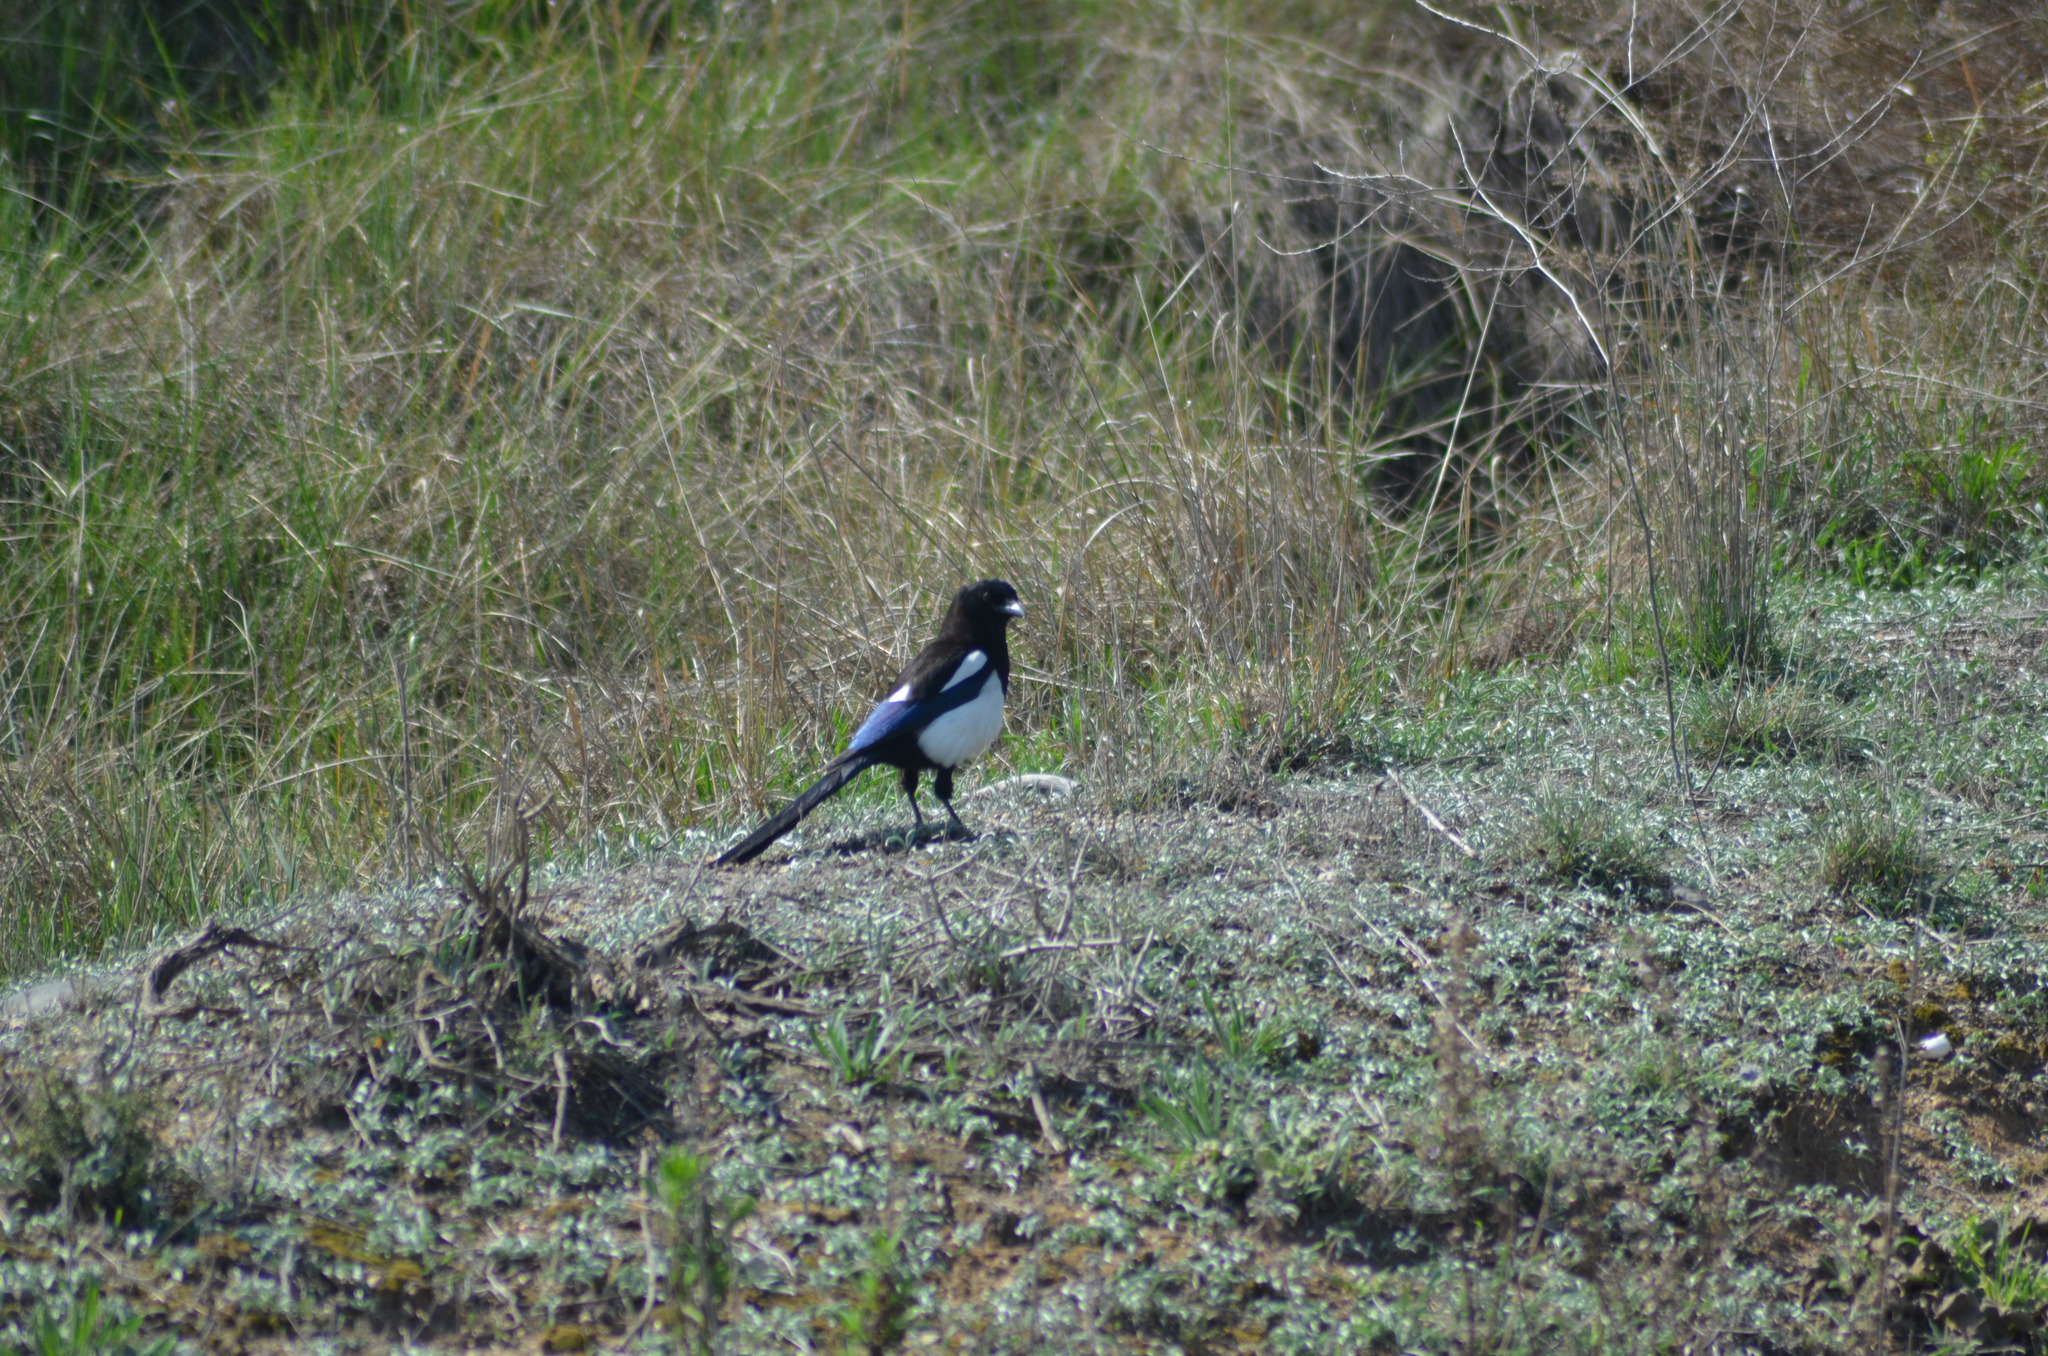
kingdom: Animalia
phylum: Chordata
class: Aves
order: Passeriformes
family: Corvidae
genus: Pica
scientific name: Pica pica
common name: Eurasian magpie
